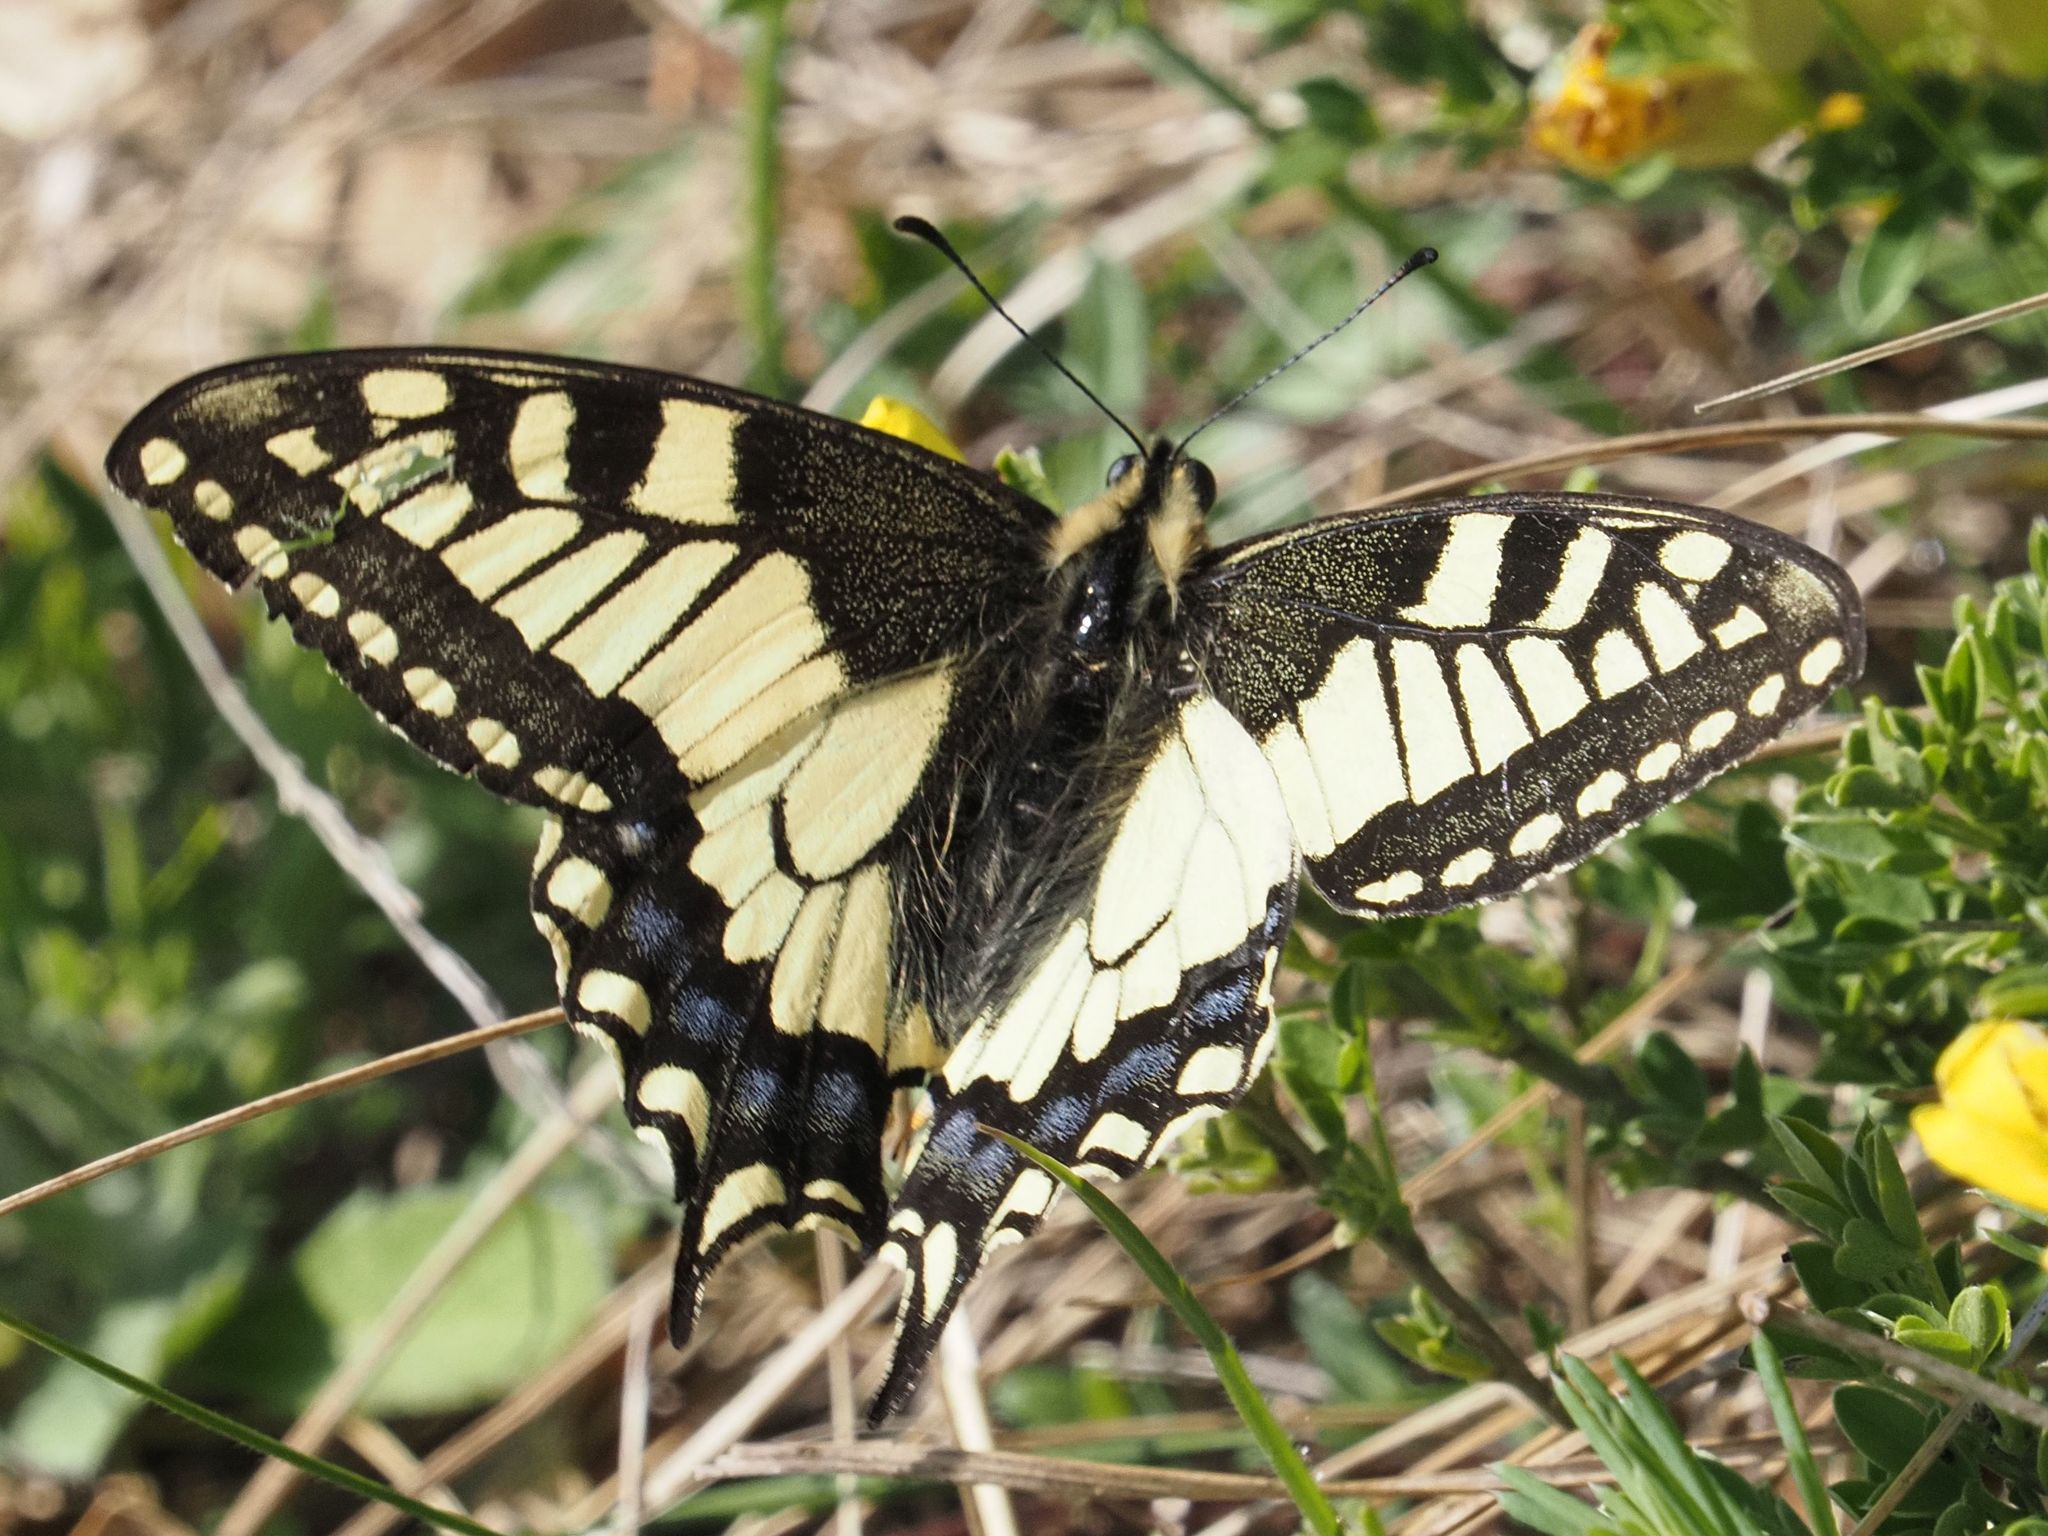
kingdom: Animalia
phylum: Arthropoda
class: Insecta
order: Lepidoptera
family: Papilionidae
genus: Papilio
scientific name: Papilio machaon
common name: Swallowtail
